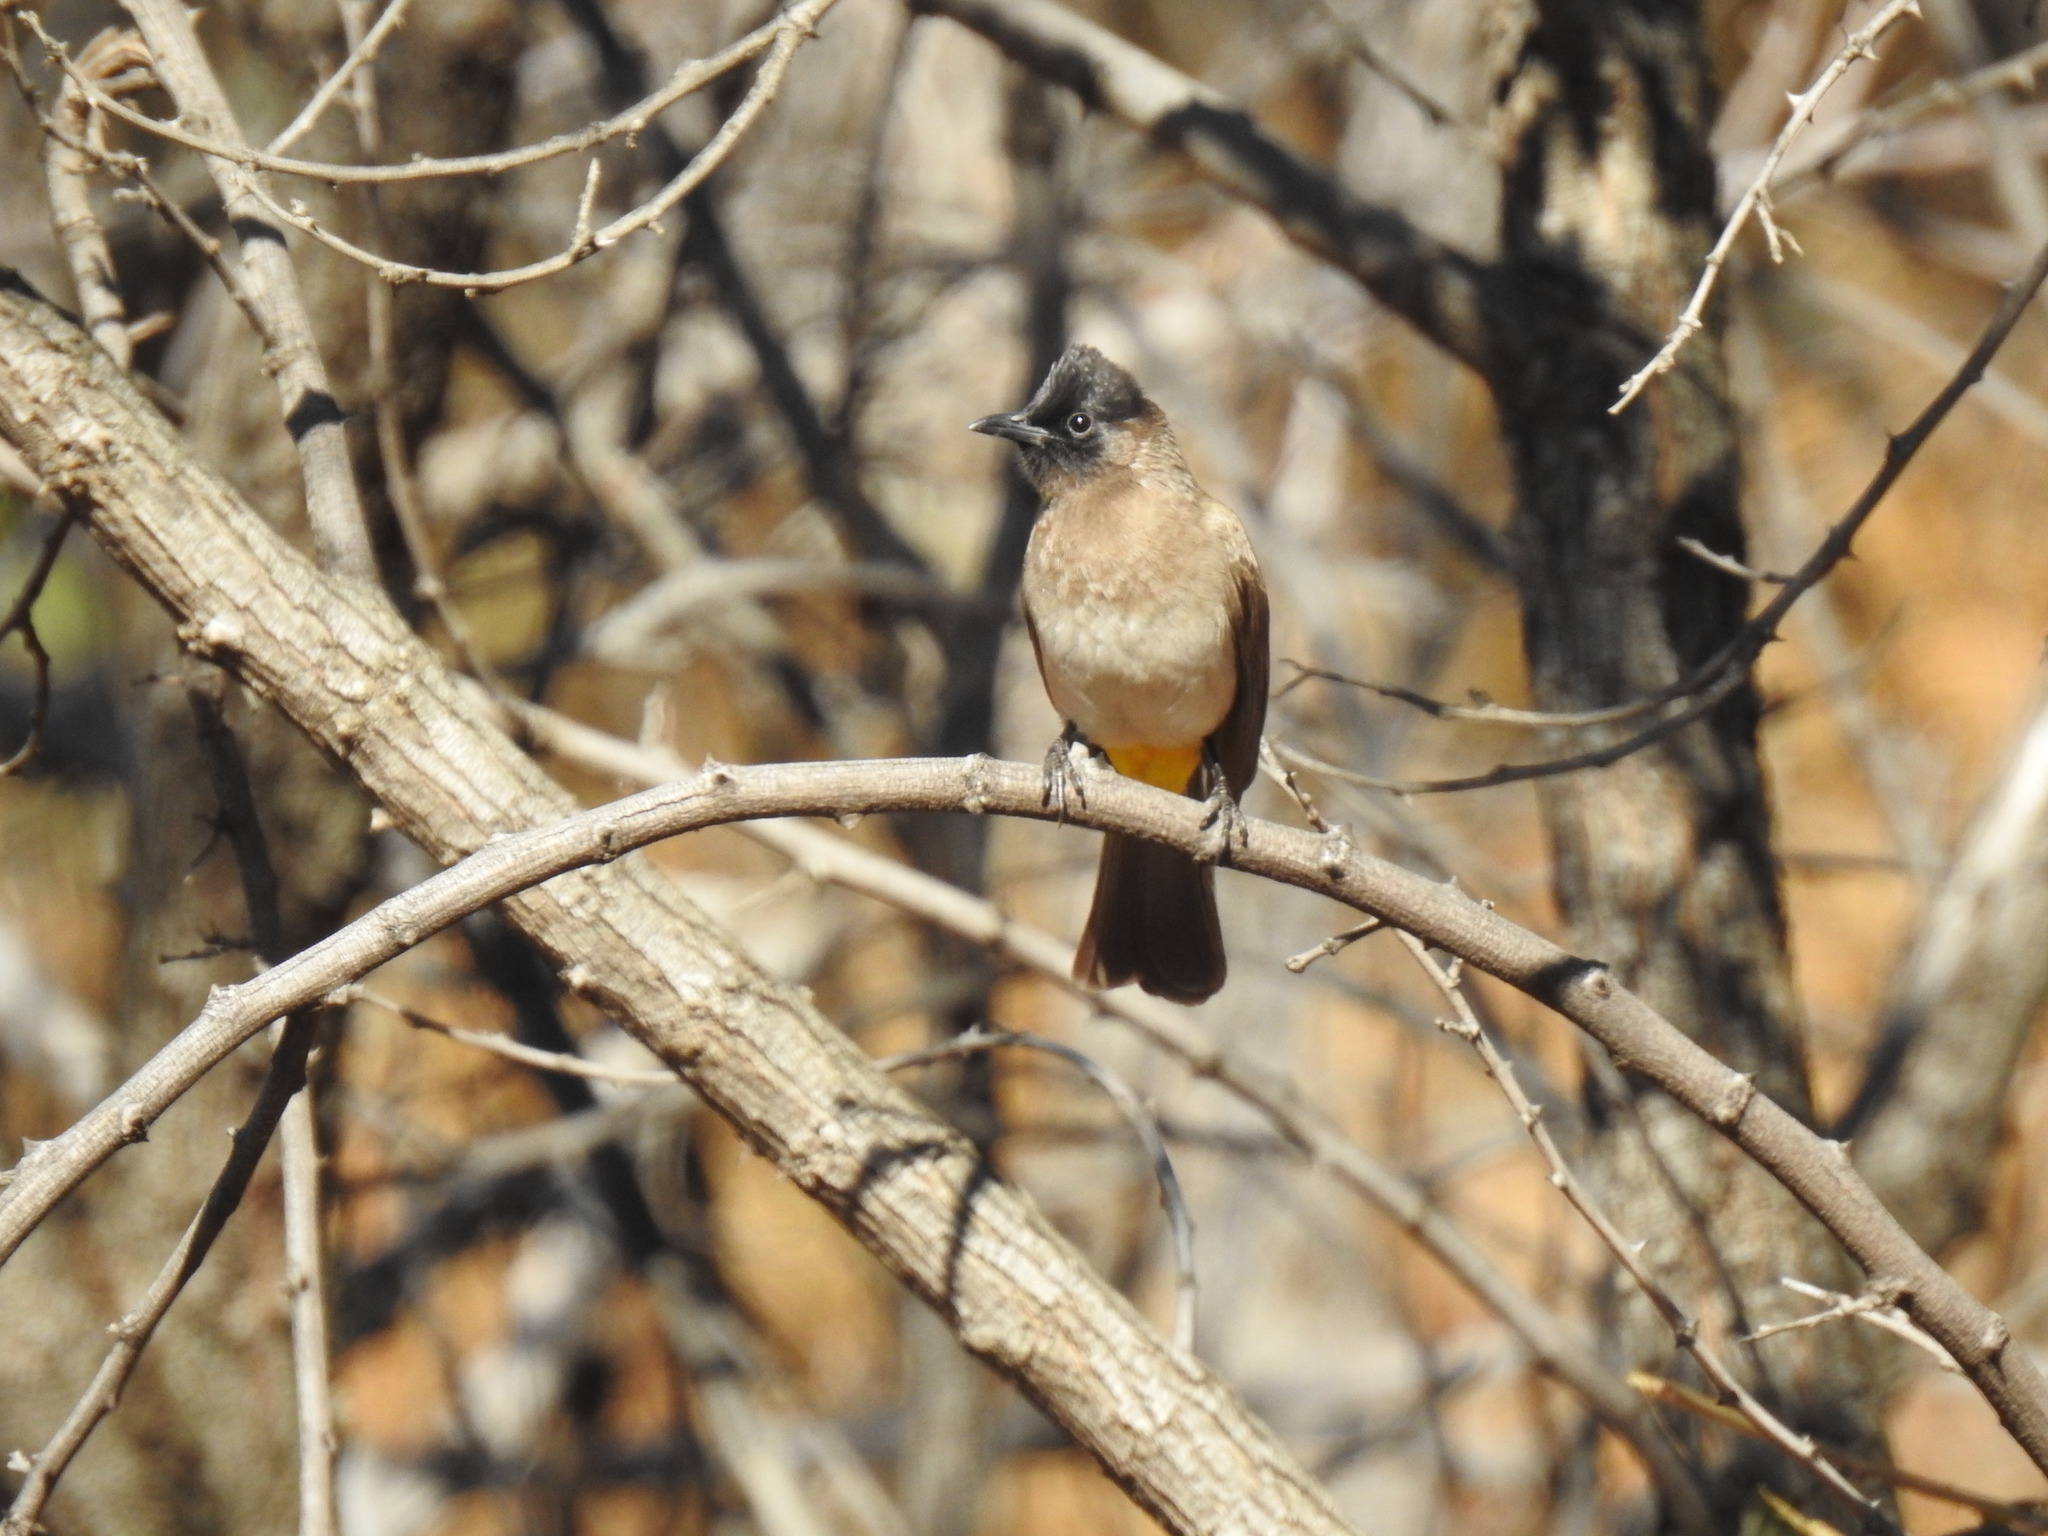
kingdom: Animalia
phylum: Chordata
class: Aves
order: Passeriformes
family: Pycnonotidae
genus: Pycnonotus
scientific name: Pycnonotus barbatus
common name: Common bulbul
